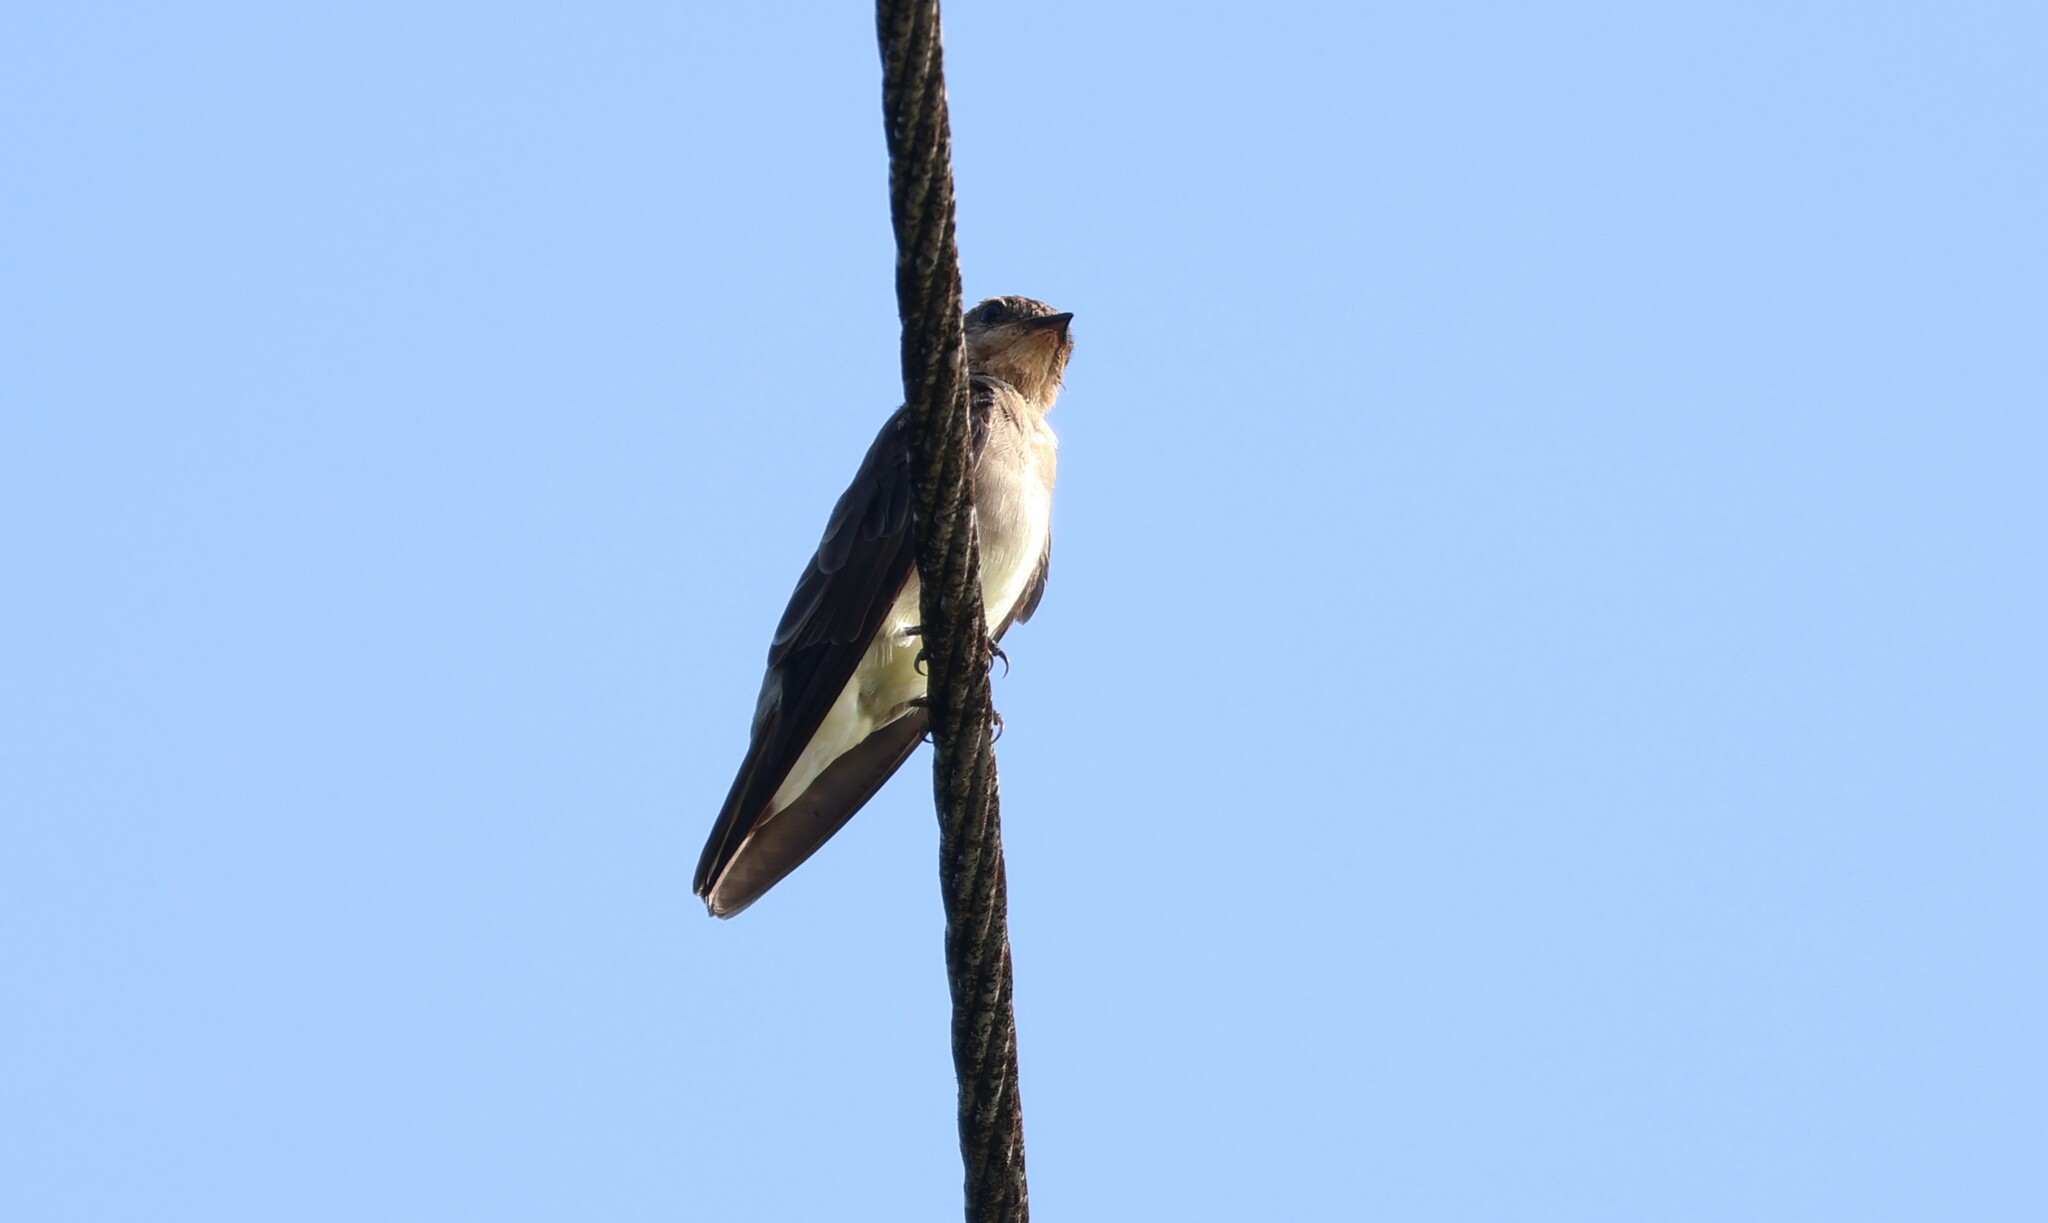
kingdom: Animalia
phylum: Chordata
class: Aves
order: Passeriformes
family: Hirundinidae
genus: Stelgidopteryx
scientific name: Stelgidopteryx ruficollis
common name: Southern rough-winged swallow
